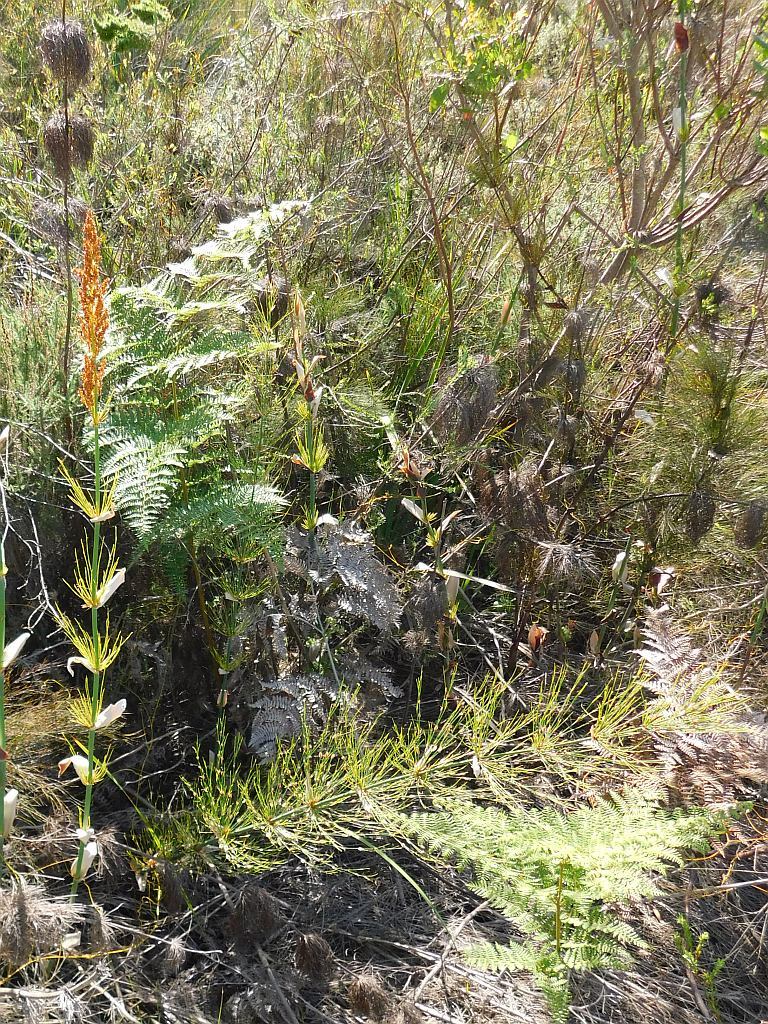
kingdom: Plantae
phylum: Tracheophyta
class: Liliopsida
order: Poales
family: Restionaceae
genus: Elegia
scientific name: Elegia capensis
